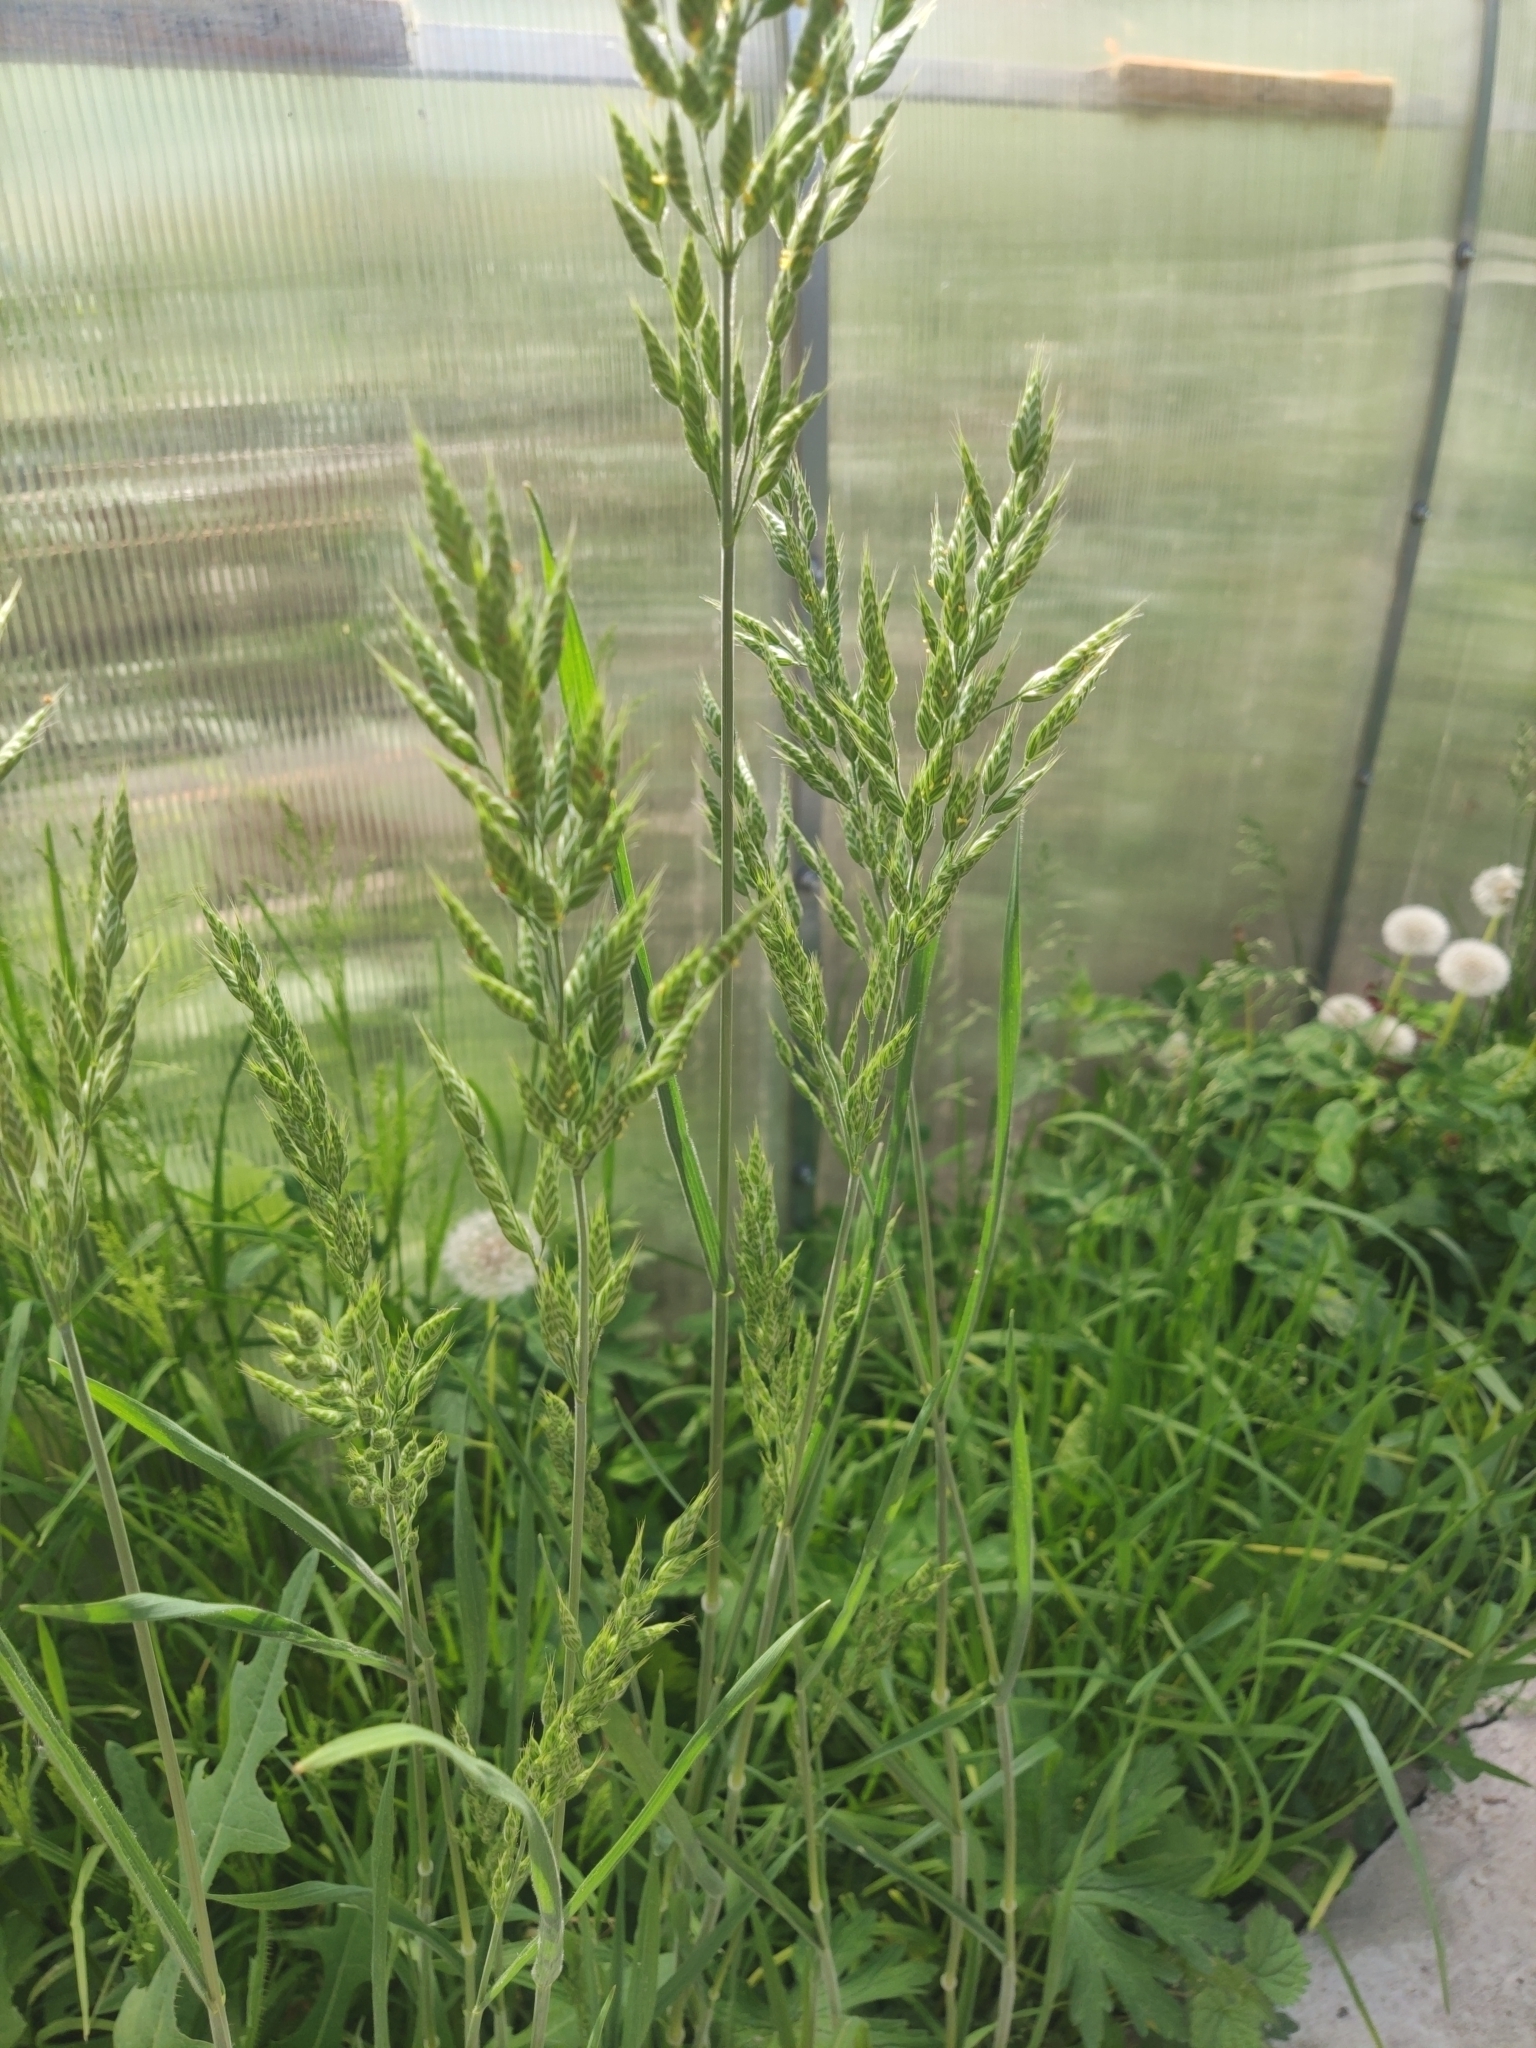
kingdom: Plantae
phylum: Tracheophyta
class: Liliopsida
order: Poales
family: Poaceae
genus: Bromus
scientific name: Bromus hordeaceus
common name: Soft brome
